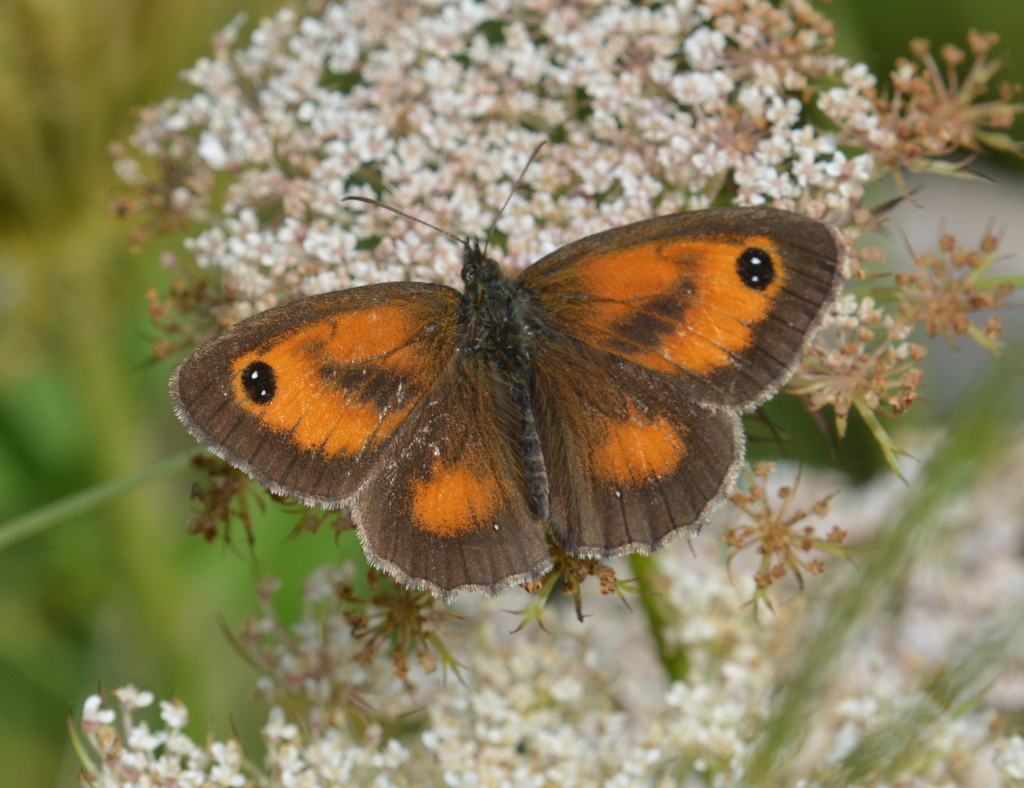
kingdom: Animalia
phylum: Arthropoda
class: Insecta
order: Lepidoptera
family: Nymphalidae
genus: Pyronia
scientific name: Pyronia tithonus
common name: Gatekeeper
